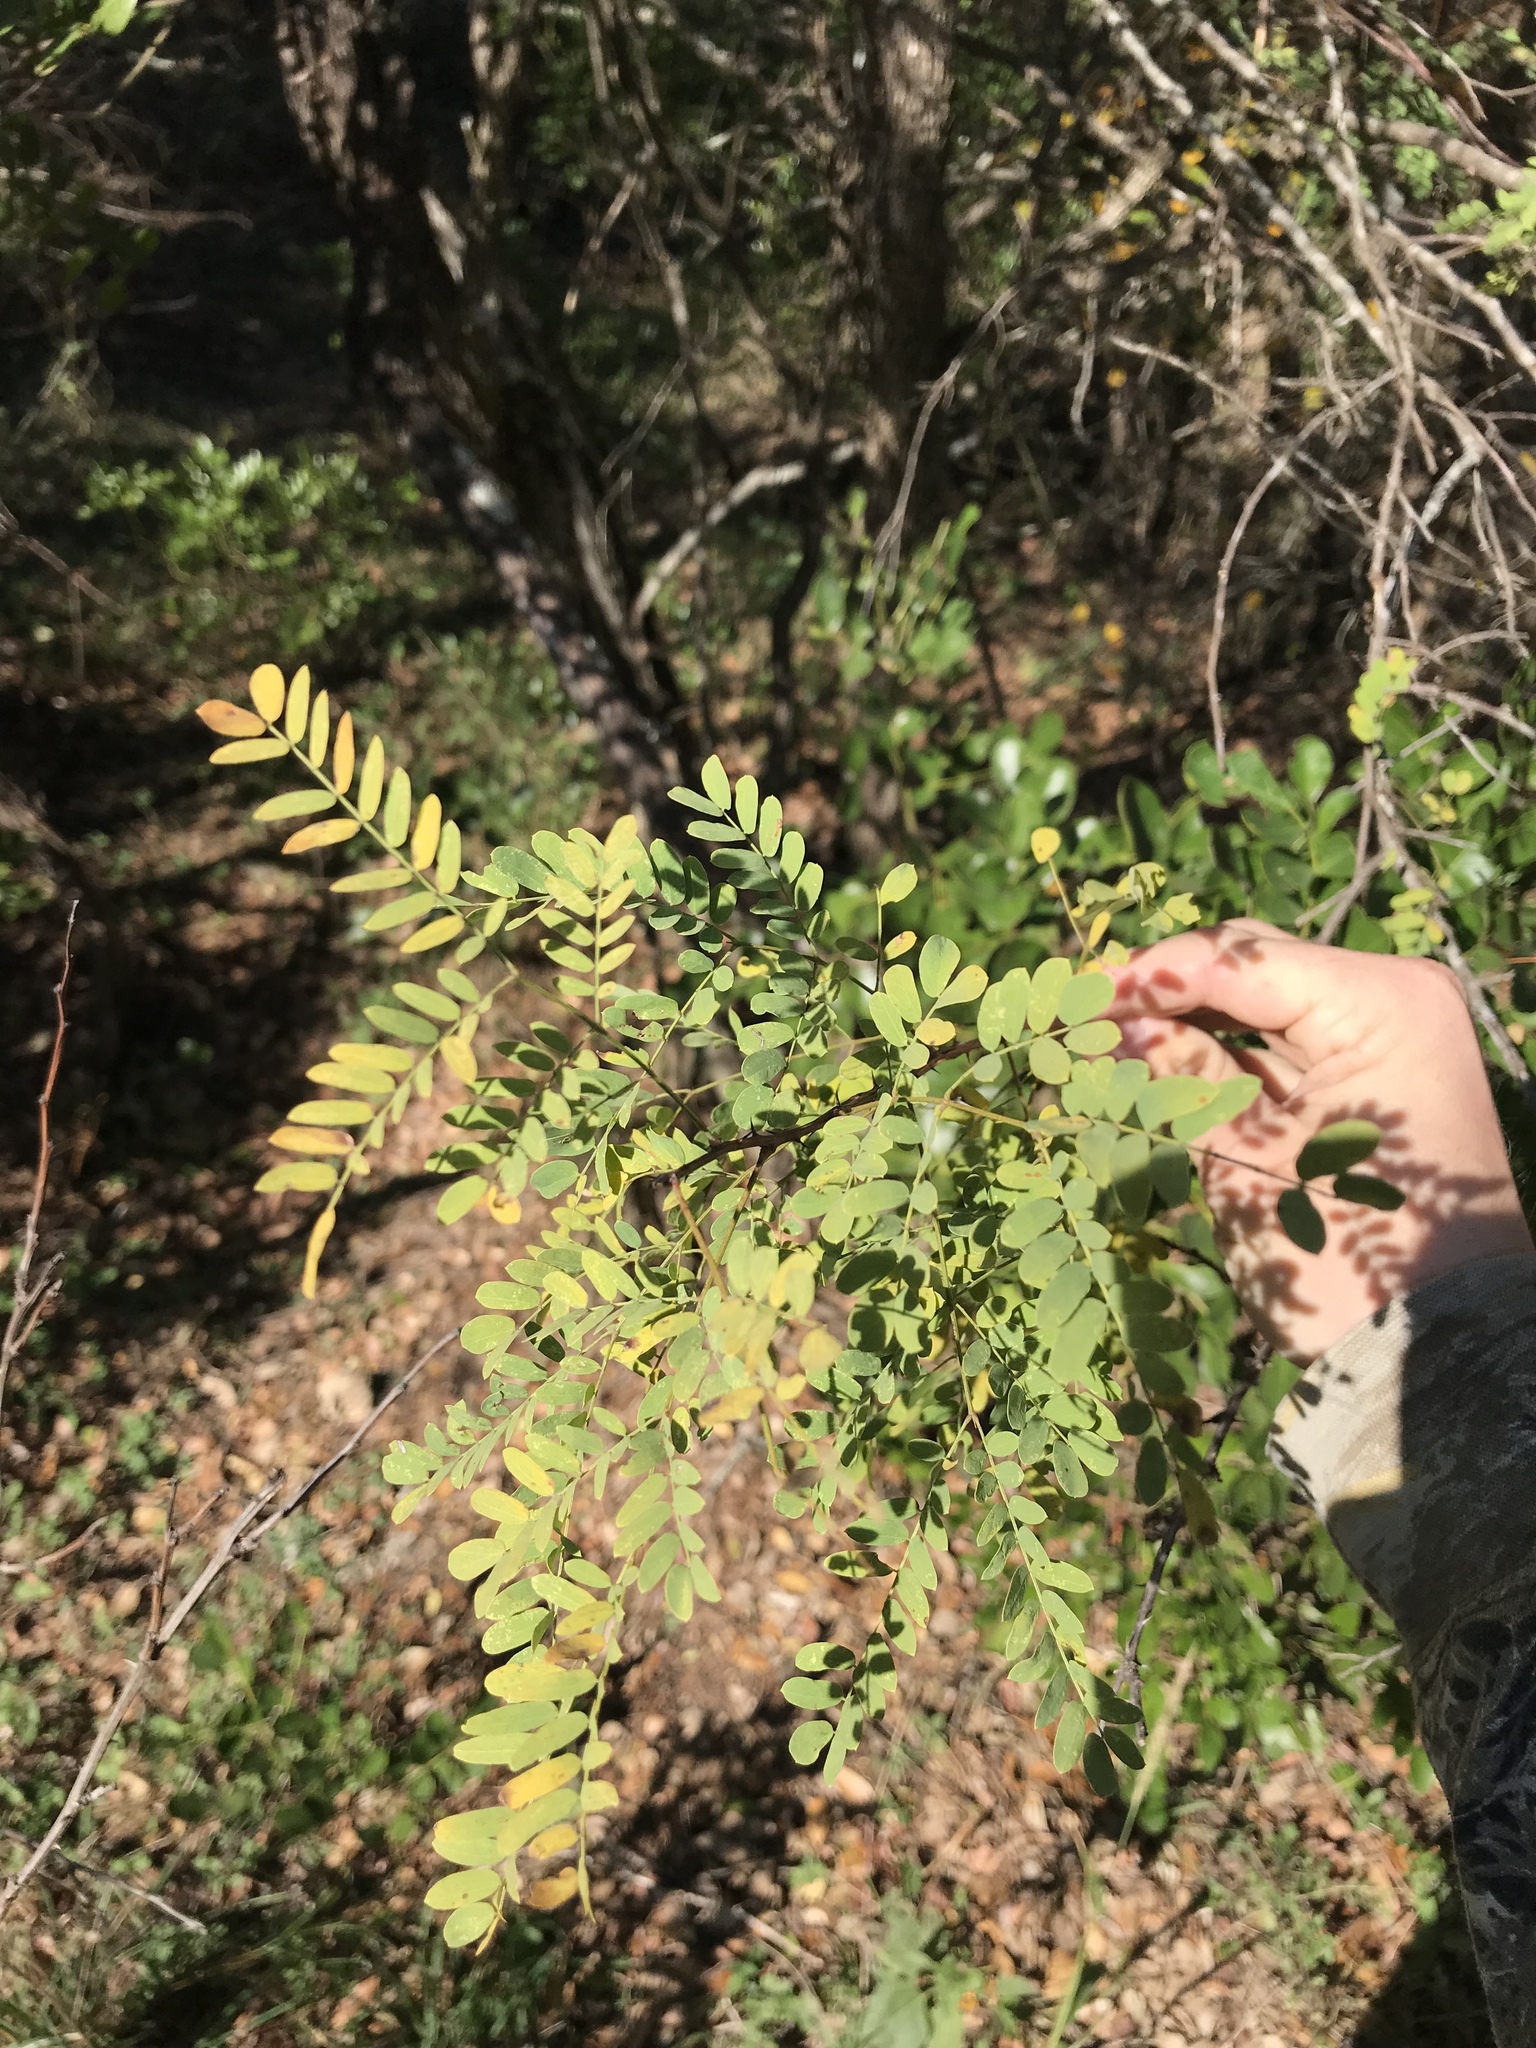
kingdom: Plantae
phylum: Tracheophyta
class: Magnoliopsida
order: Fabales
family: Fabaceae
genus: Senegalia
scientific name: Senegalia roemeriana
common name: Roemer's acacia
